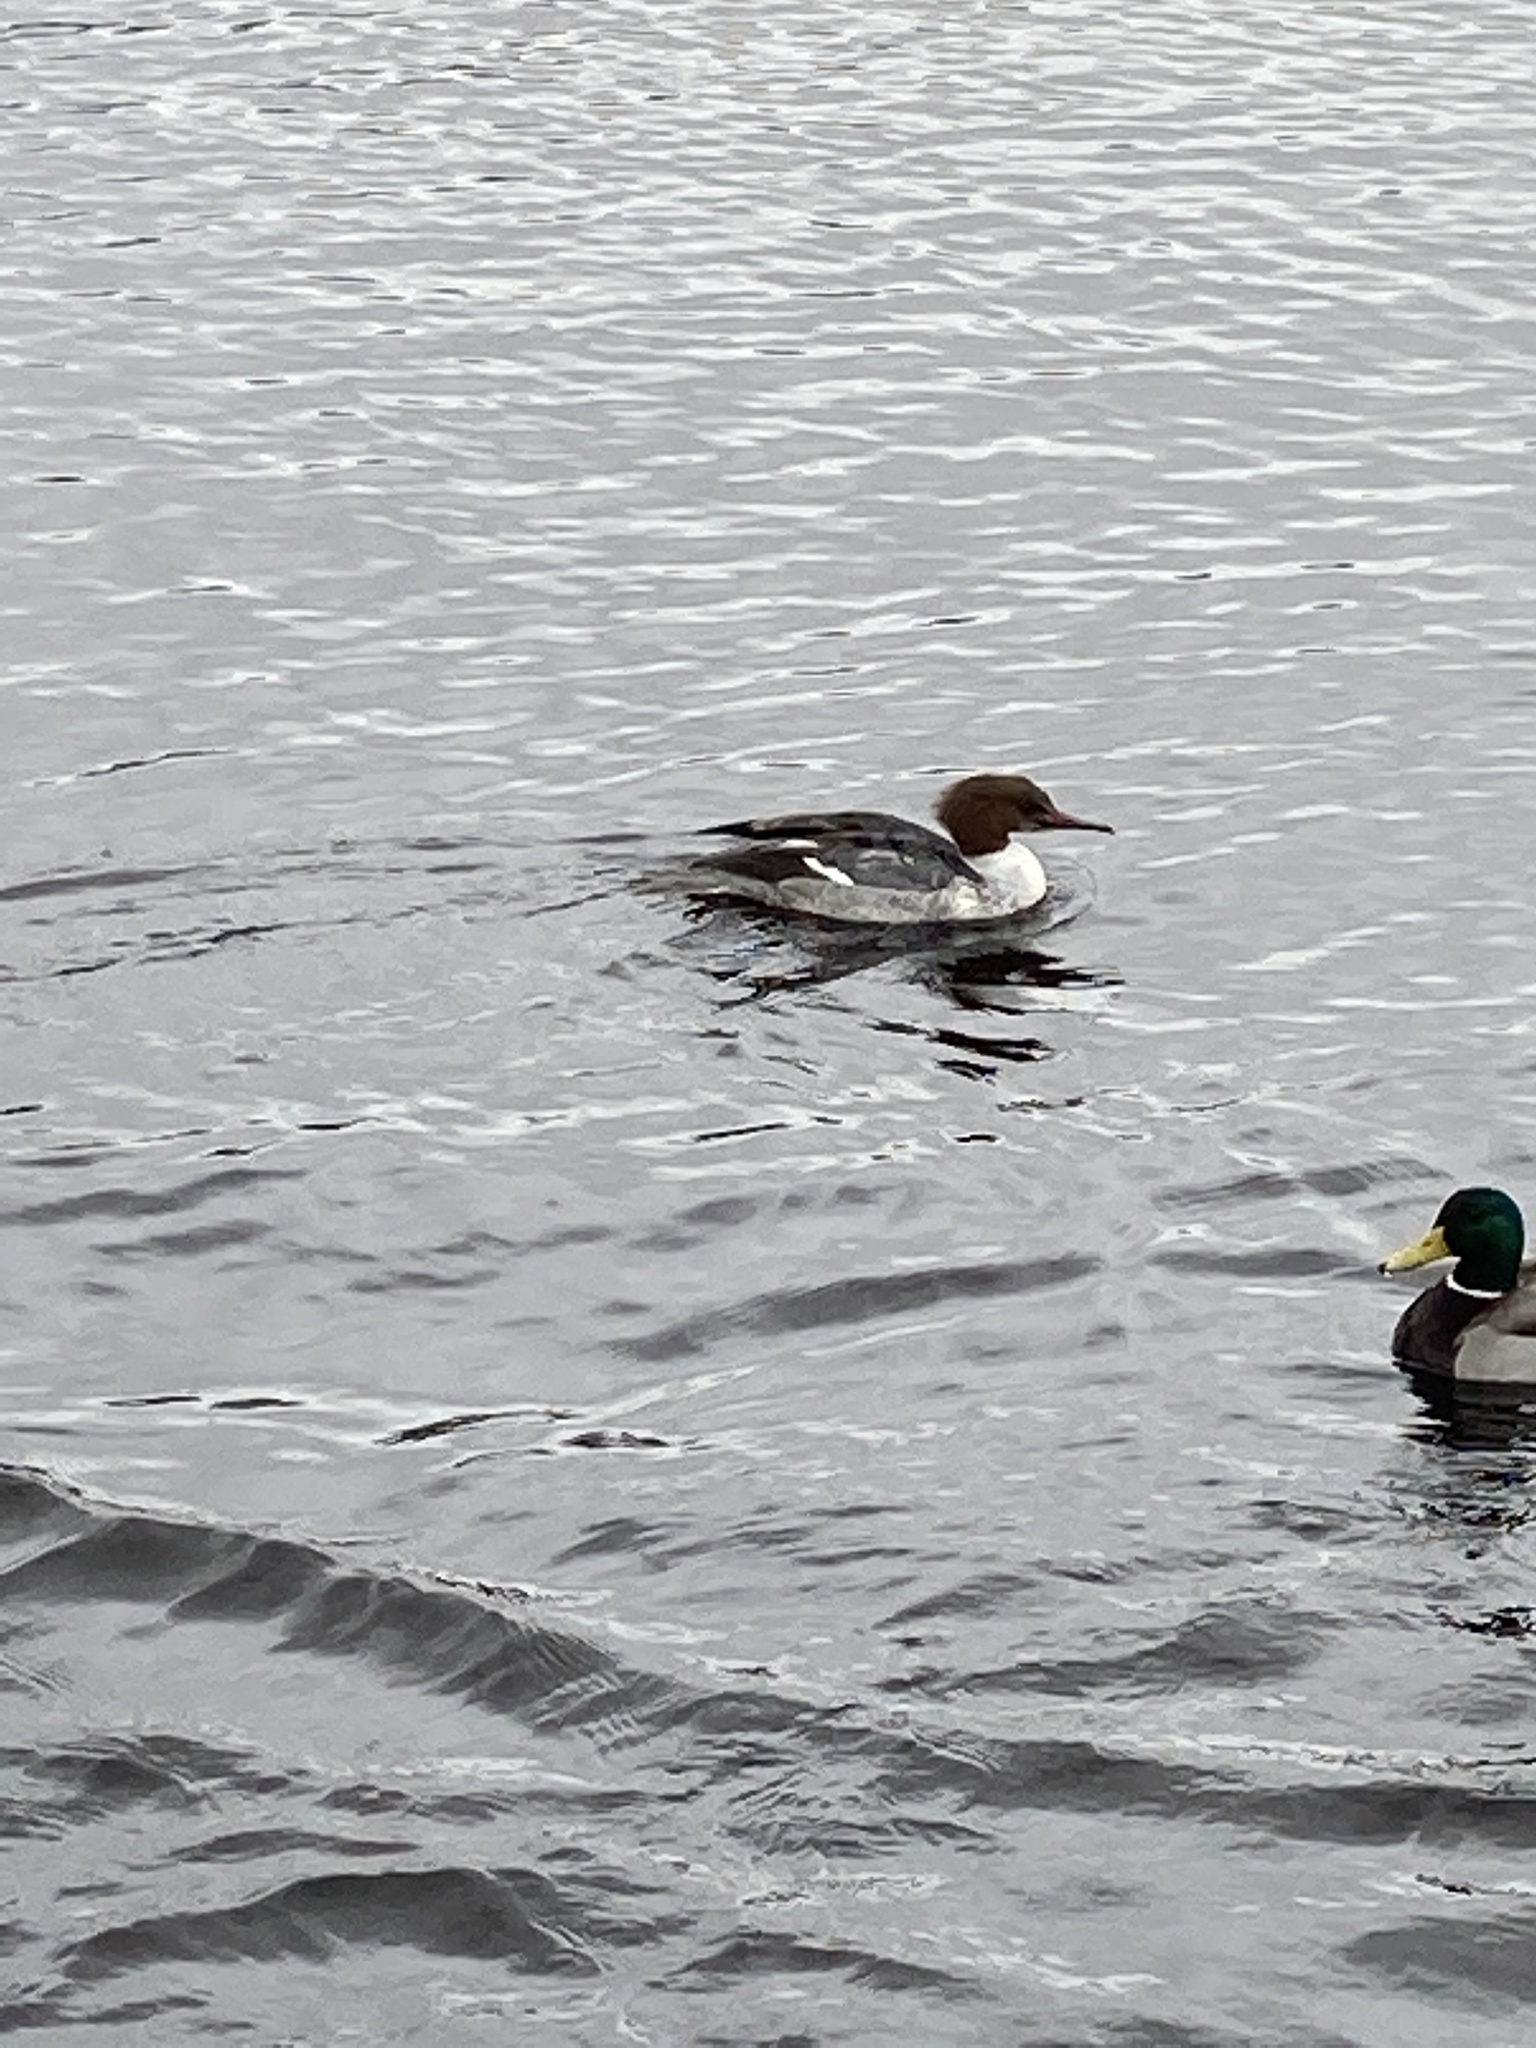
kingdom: Animalia
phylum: Chordata
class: Aves
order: Anseriformes
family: Anatidae
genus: Mergus
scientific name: Mergus merganser
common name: Common merganser
